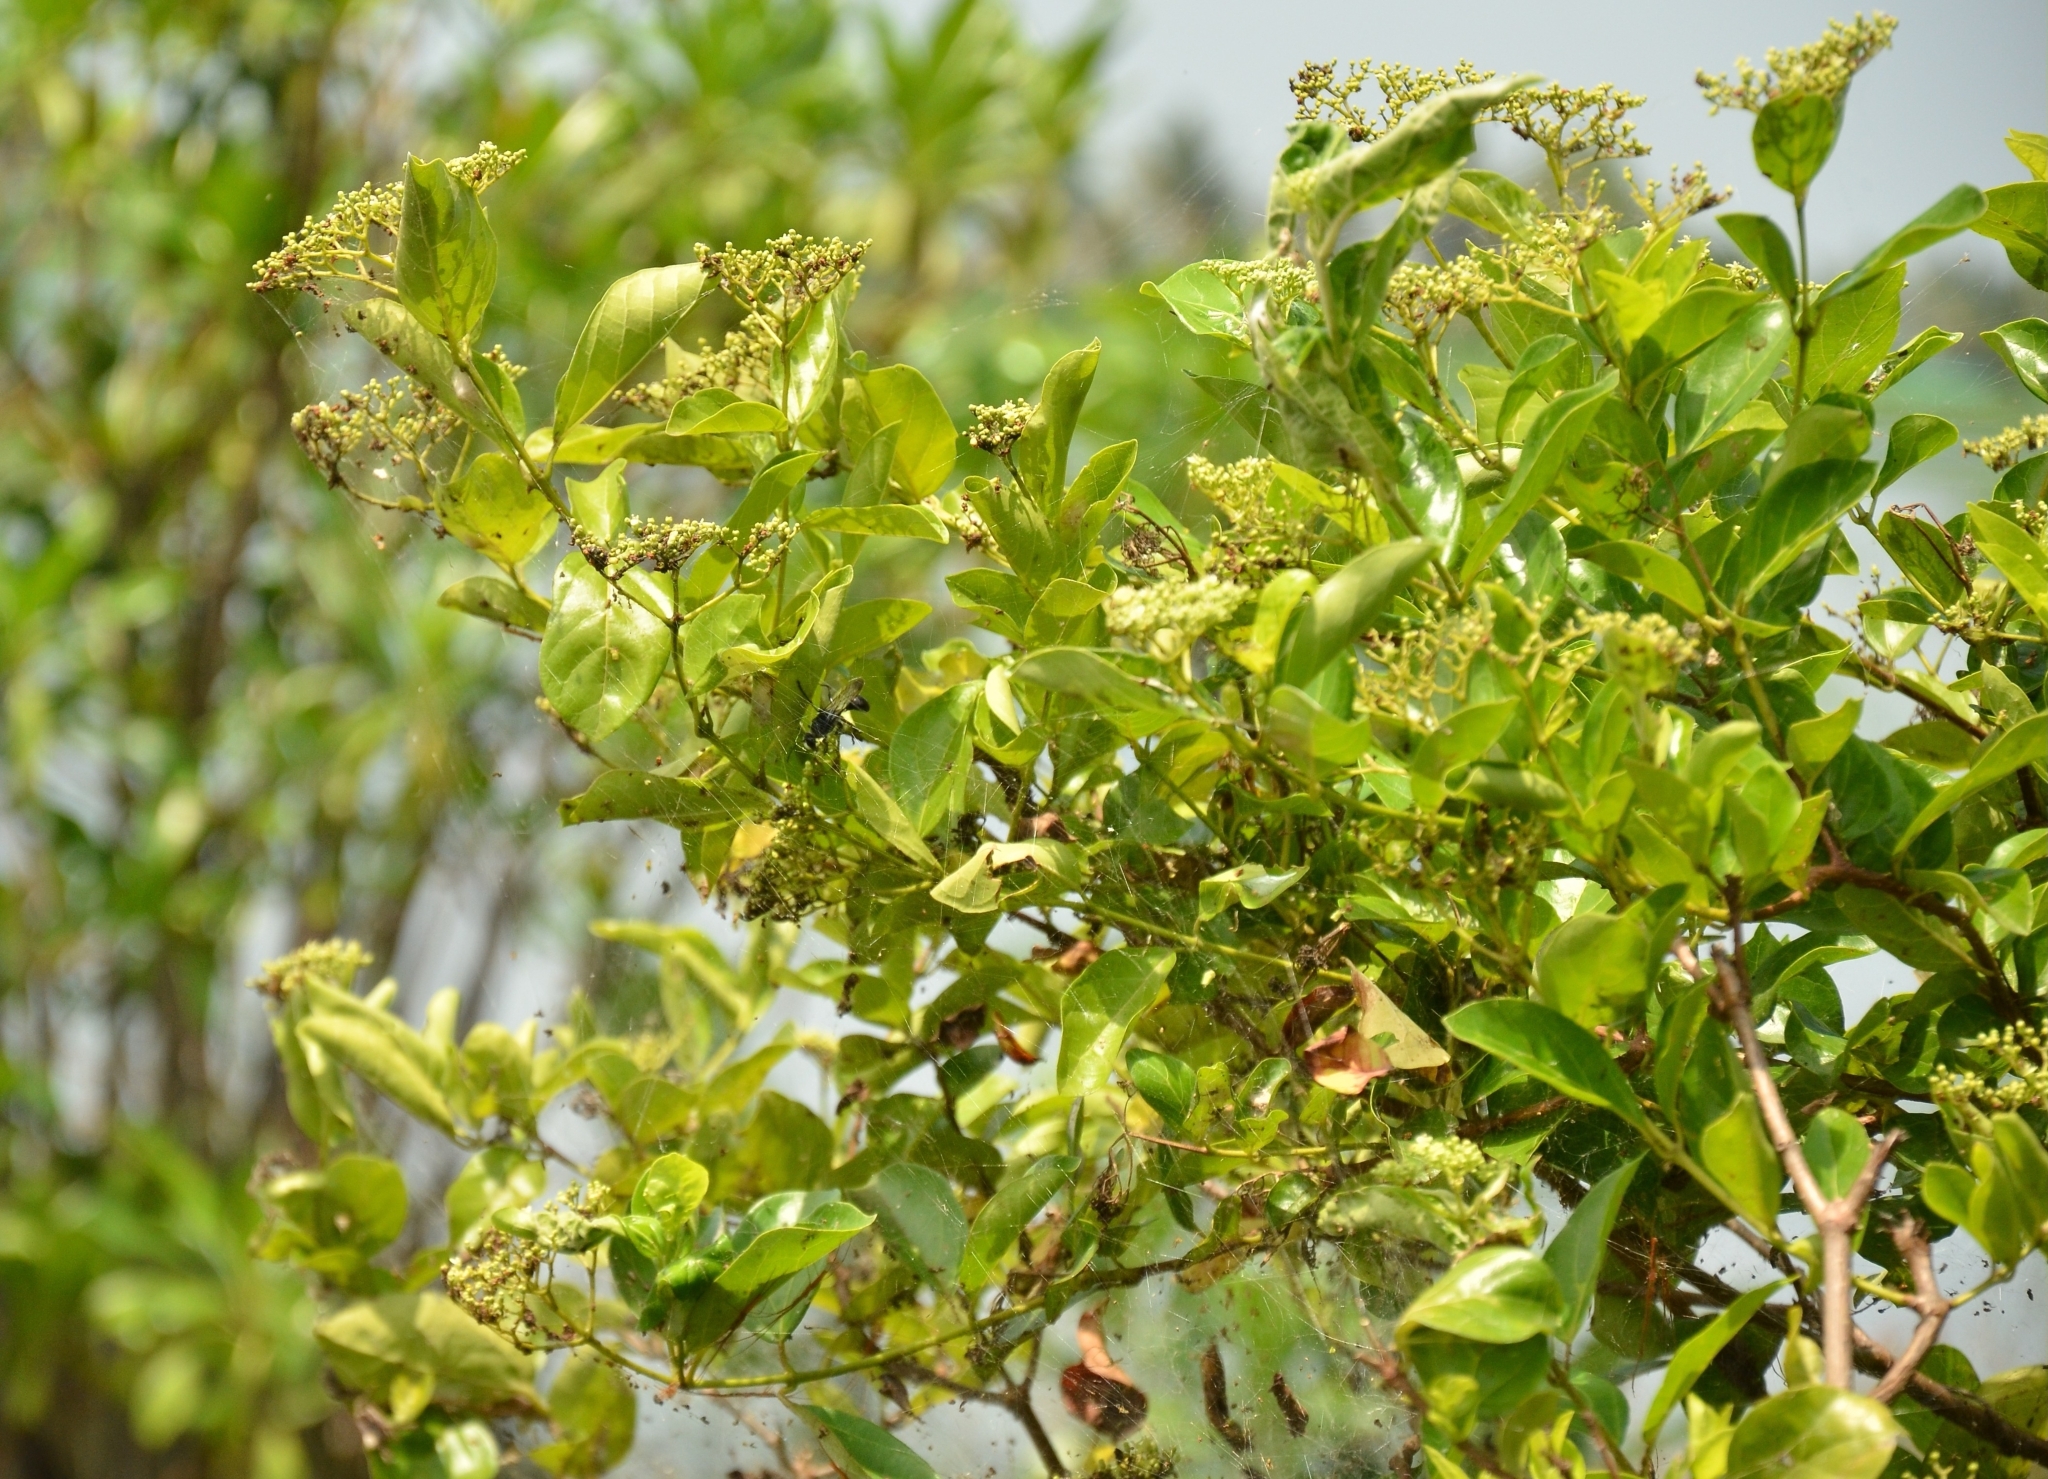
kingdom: Plantae
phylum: Tracheophyta
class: Magnoliopsida
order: Lamiales
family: Lamiaceae
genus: Premna
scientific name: Premna serratifolia
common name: Bastard guelder
